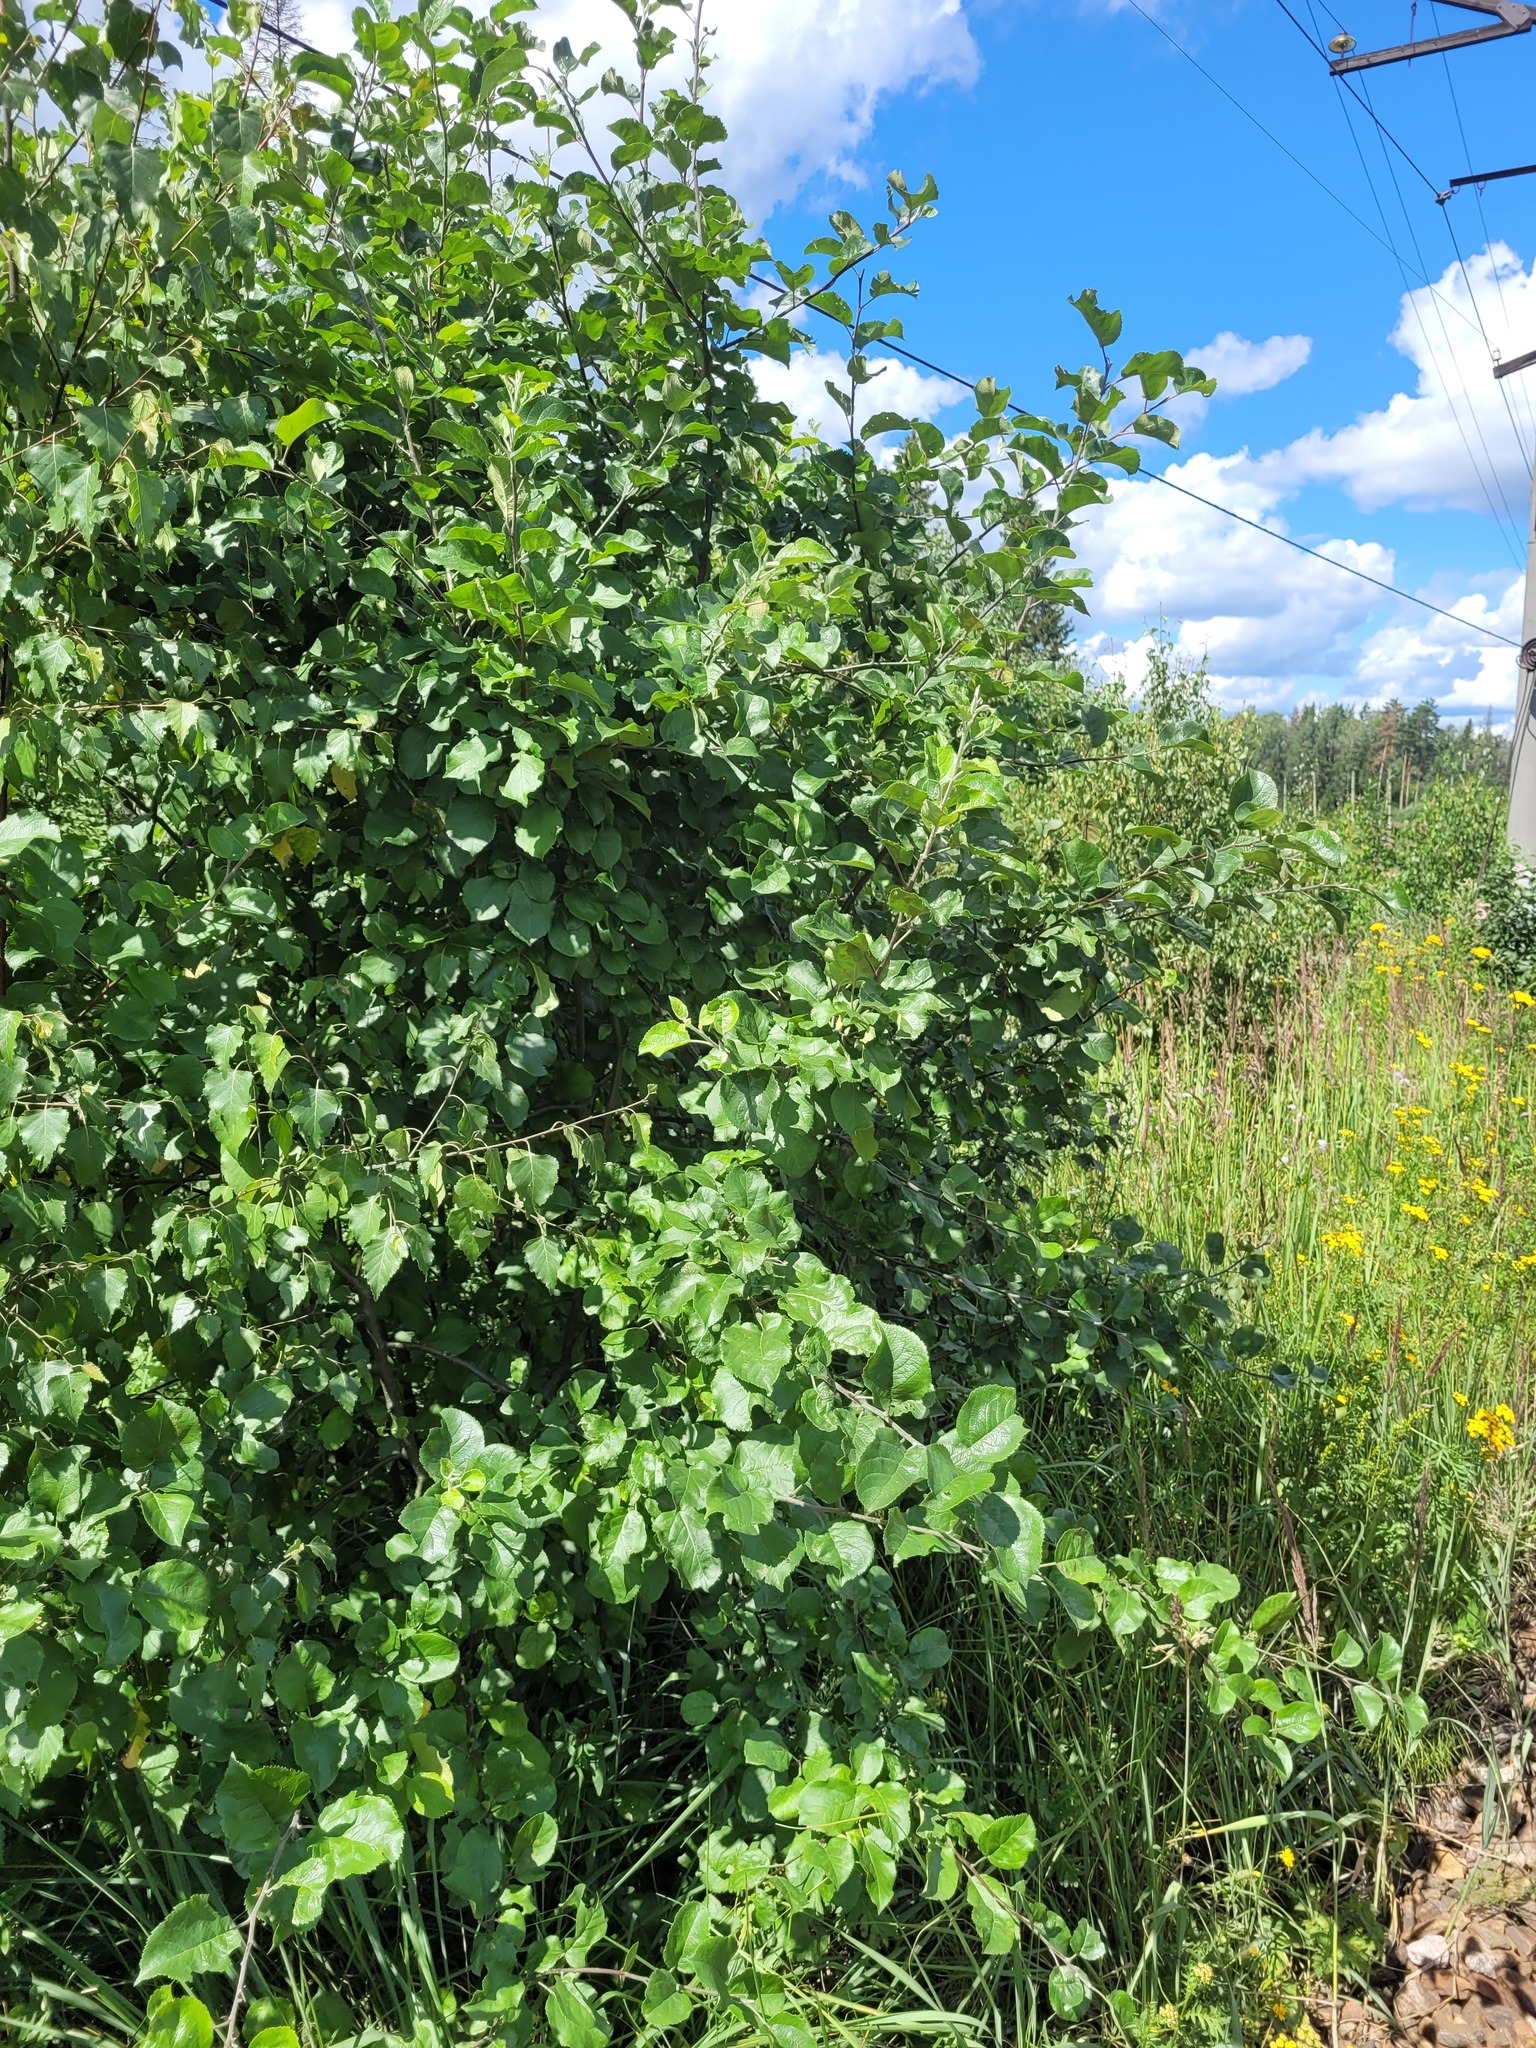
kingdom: Plantae
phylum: Tracheophyta
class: Magnoliopsida
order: Rosales
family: Rosaceae
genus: Malus
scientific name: Malus domestica
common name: Apple
